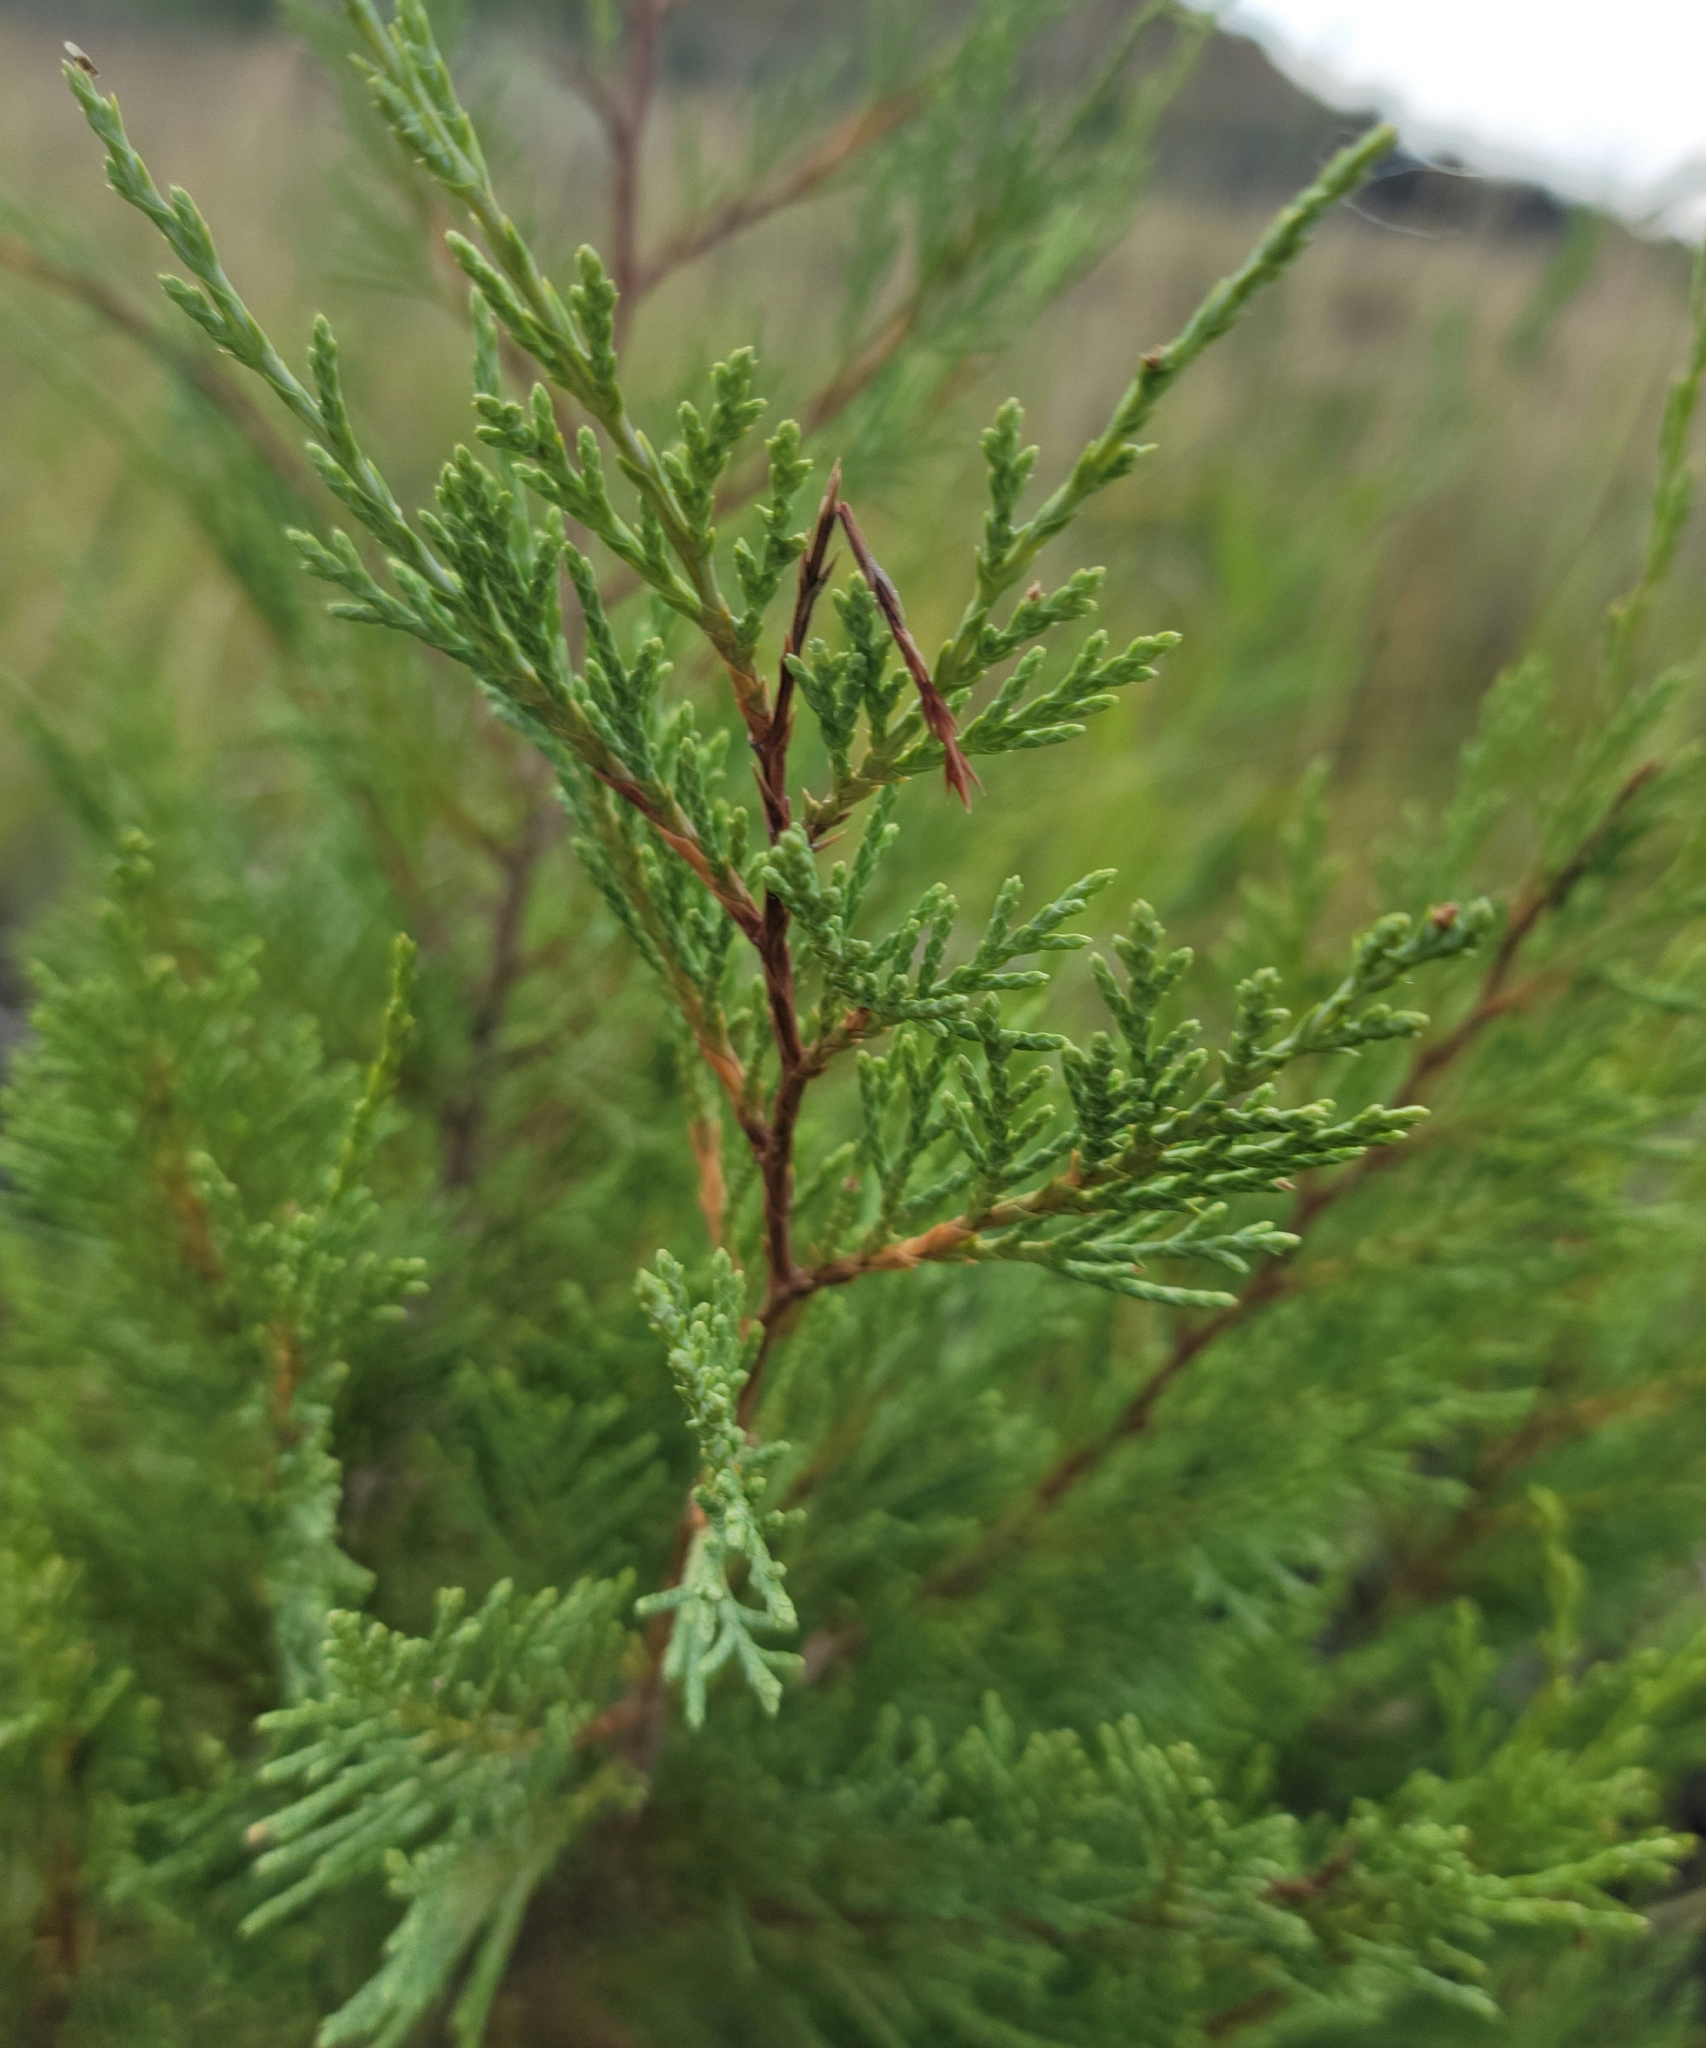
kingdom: Plantae
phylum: Tracheophyta
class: Pinopsida
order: Pinales
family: Cupressaceae
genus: Juniperus
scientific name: Juniperus scopulorum
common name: Rocky mountain juniper
